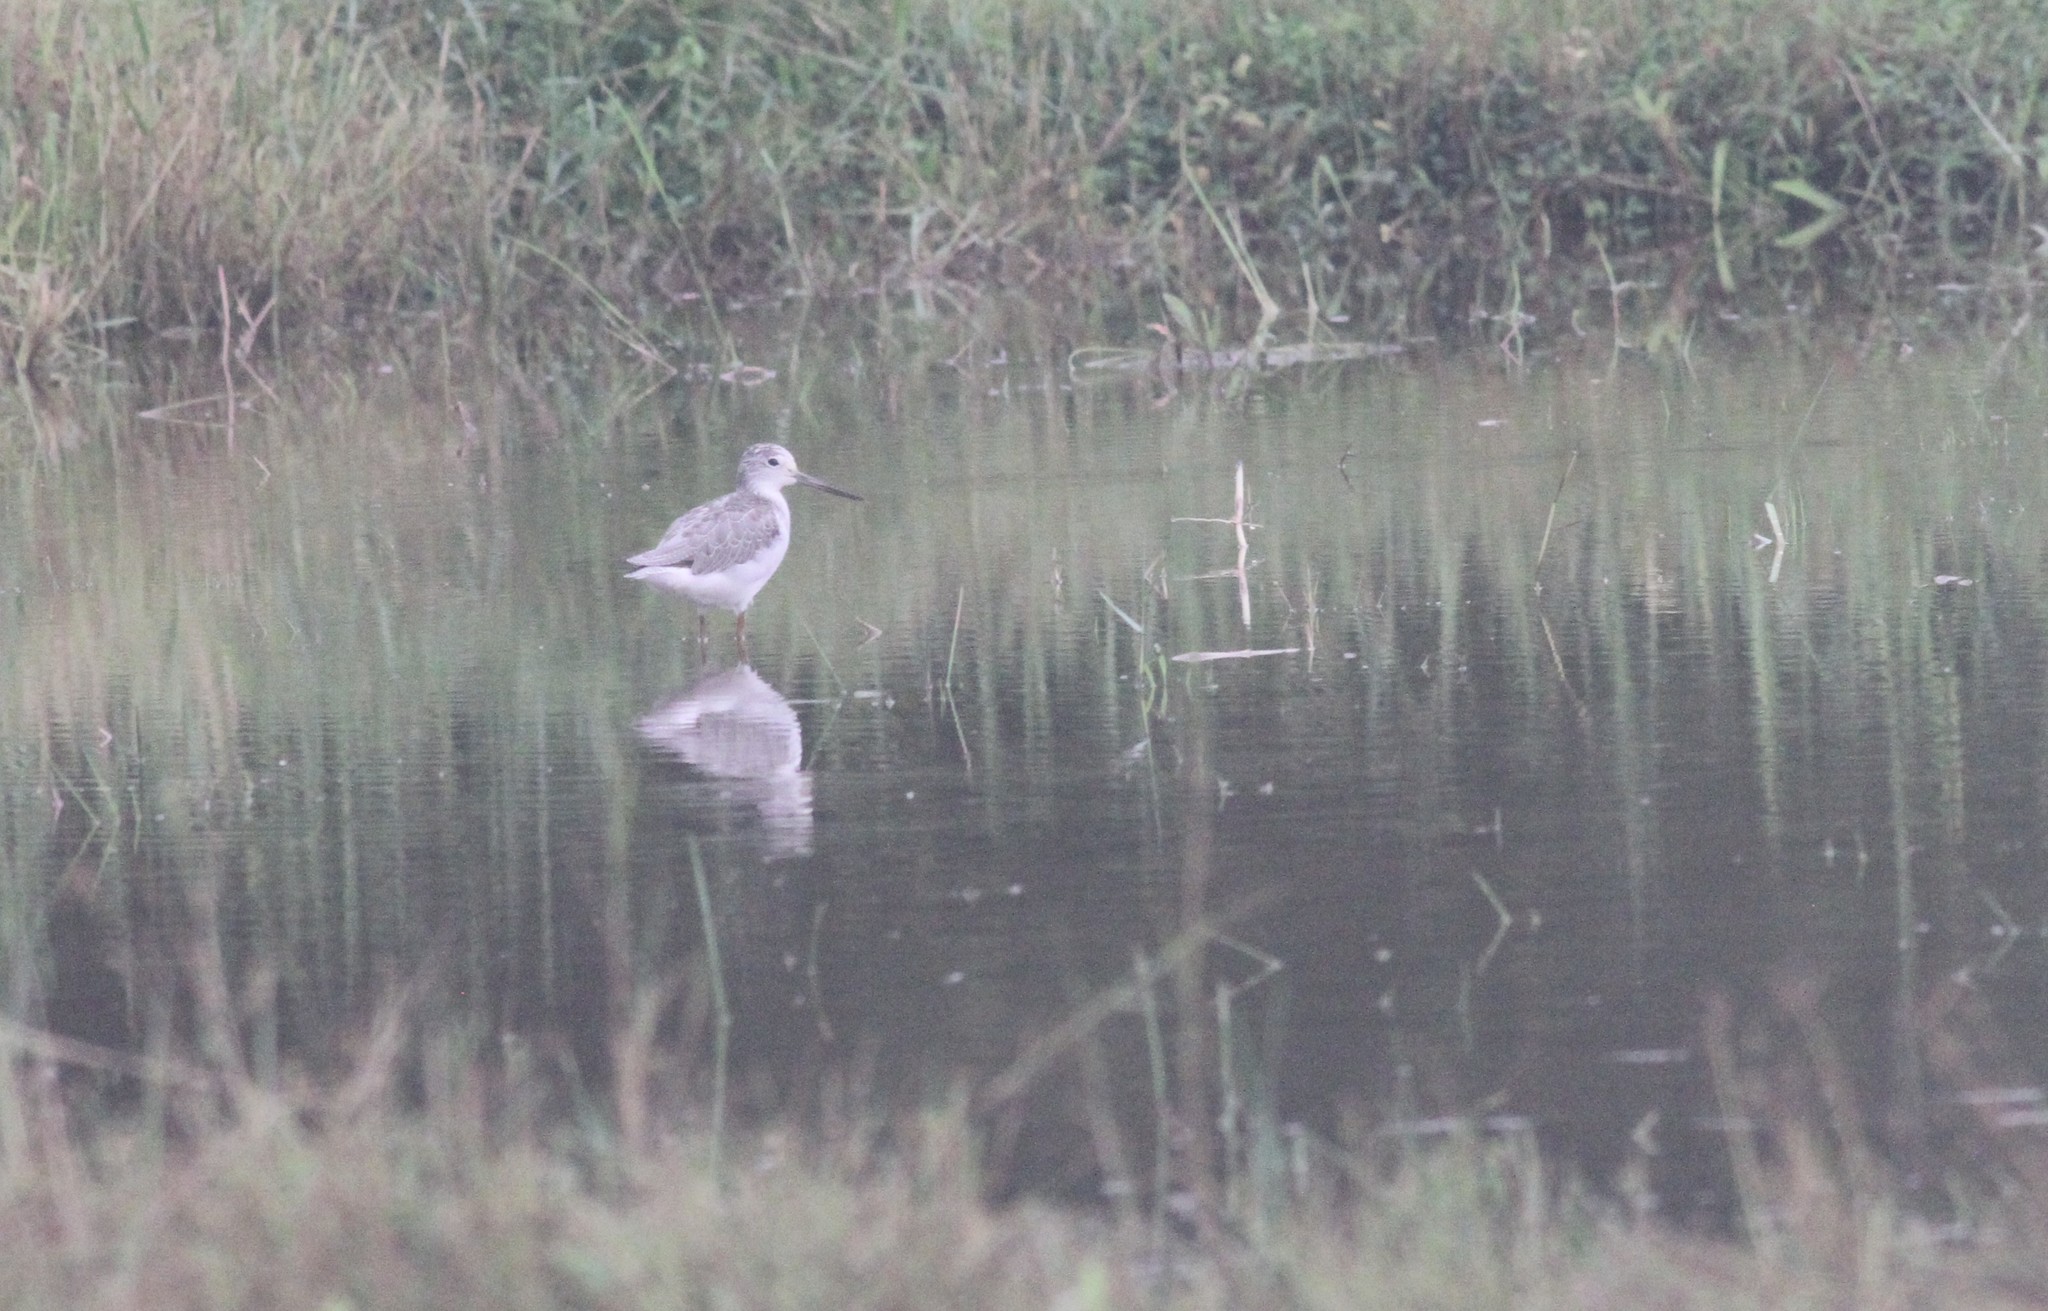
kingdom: Animalia
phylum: Chordata
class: Aves
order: Charadriiformes
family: Scolopacidae
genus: Tringa
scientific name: Tringa nebularia
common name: Common greenshank
